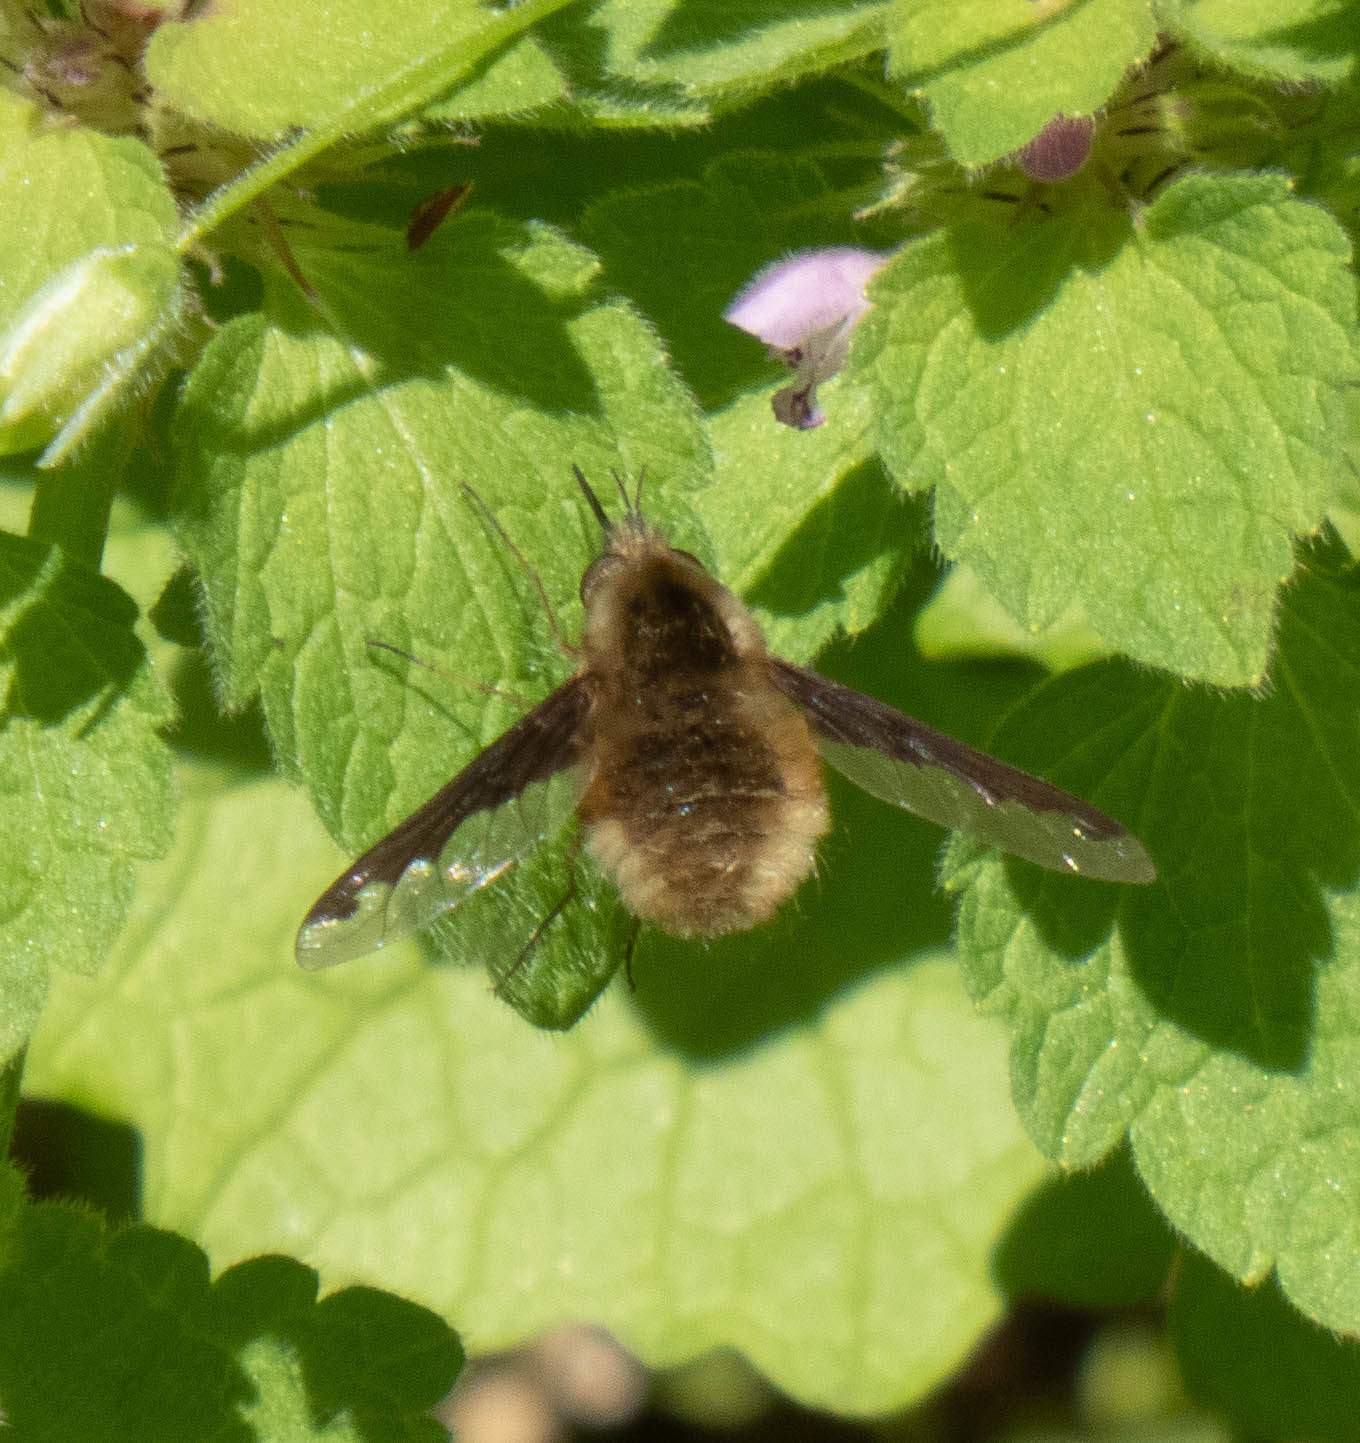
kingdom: Animalia
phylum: Arthropoda
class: Insecta
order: Diptera
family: Bombyliidae
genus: Bombylius
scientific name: Bombylius major
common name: Bee fly
